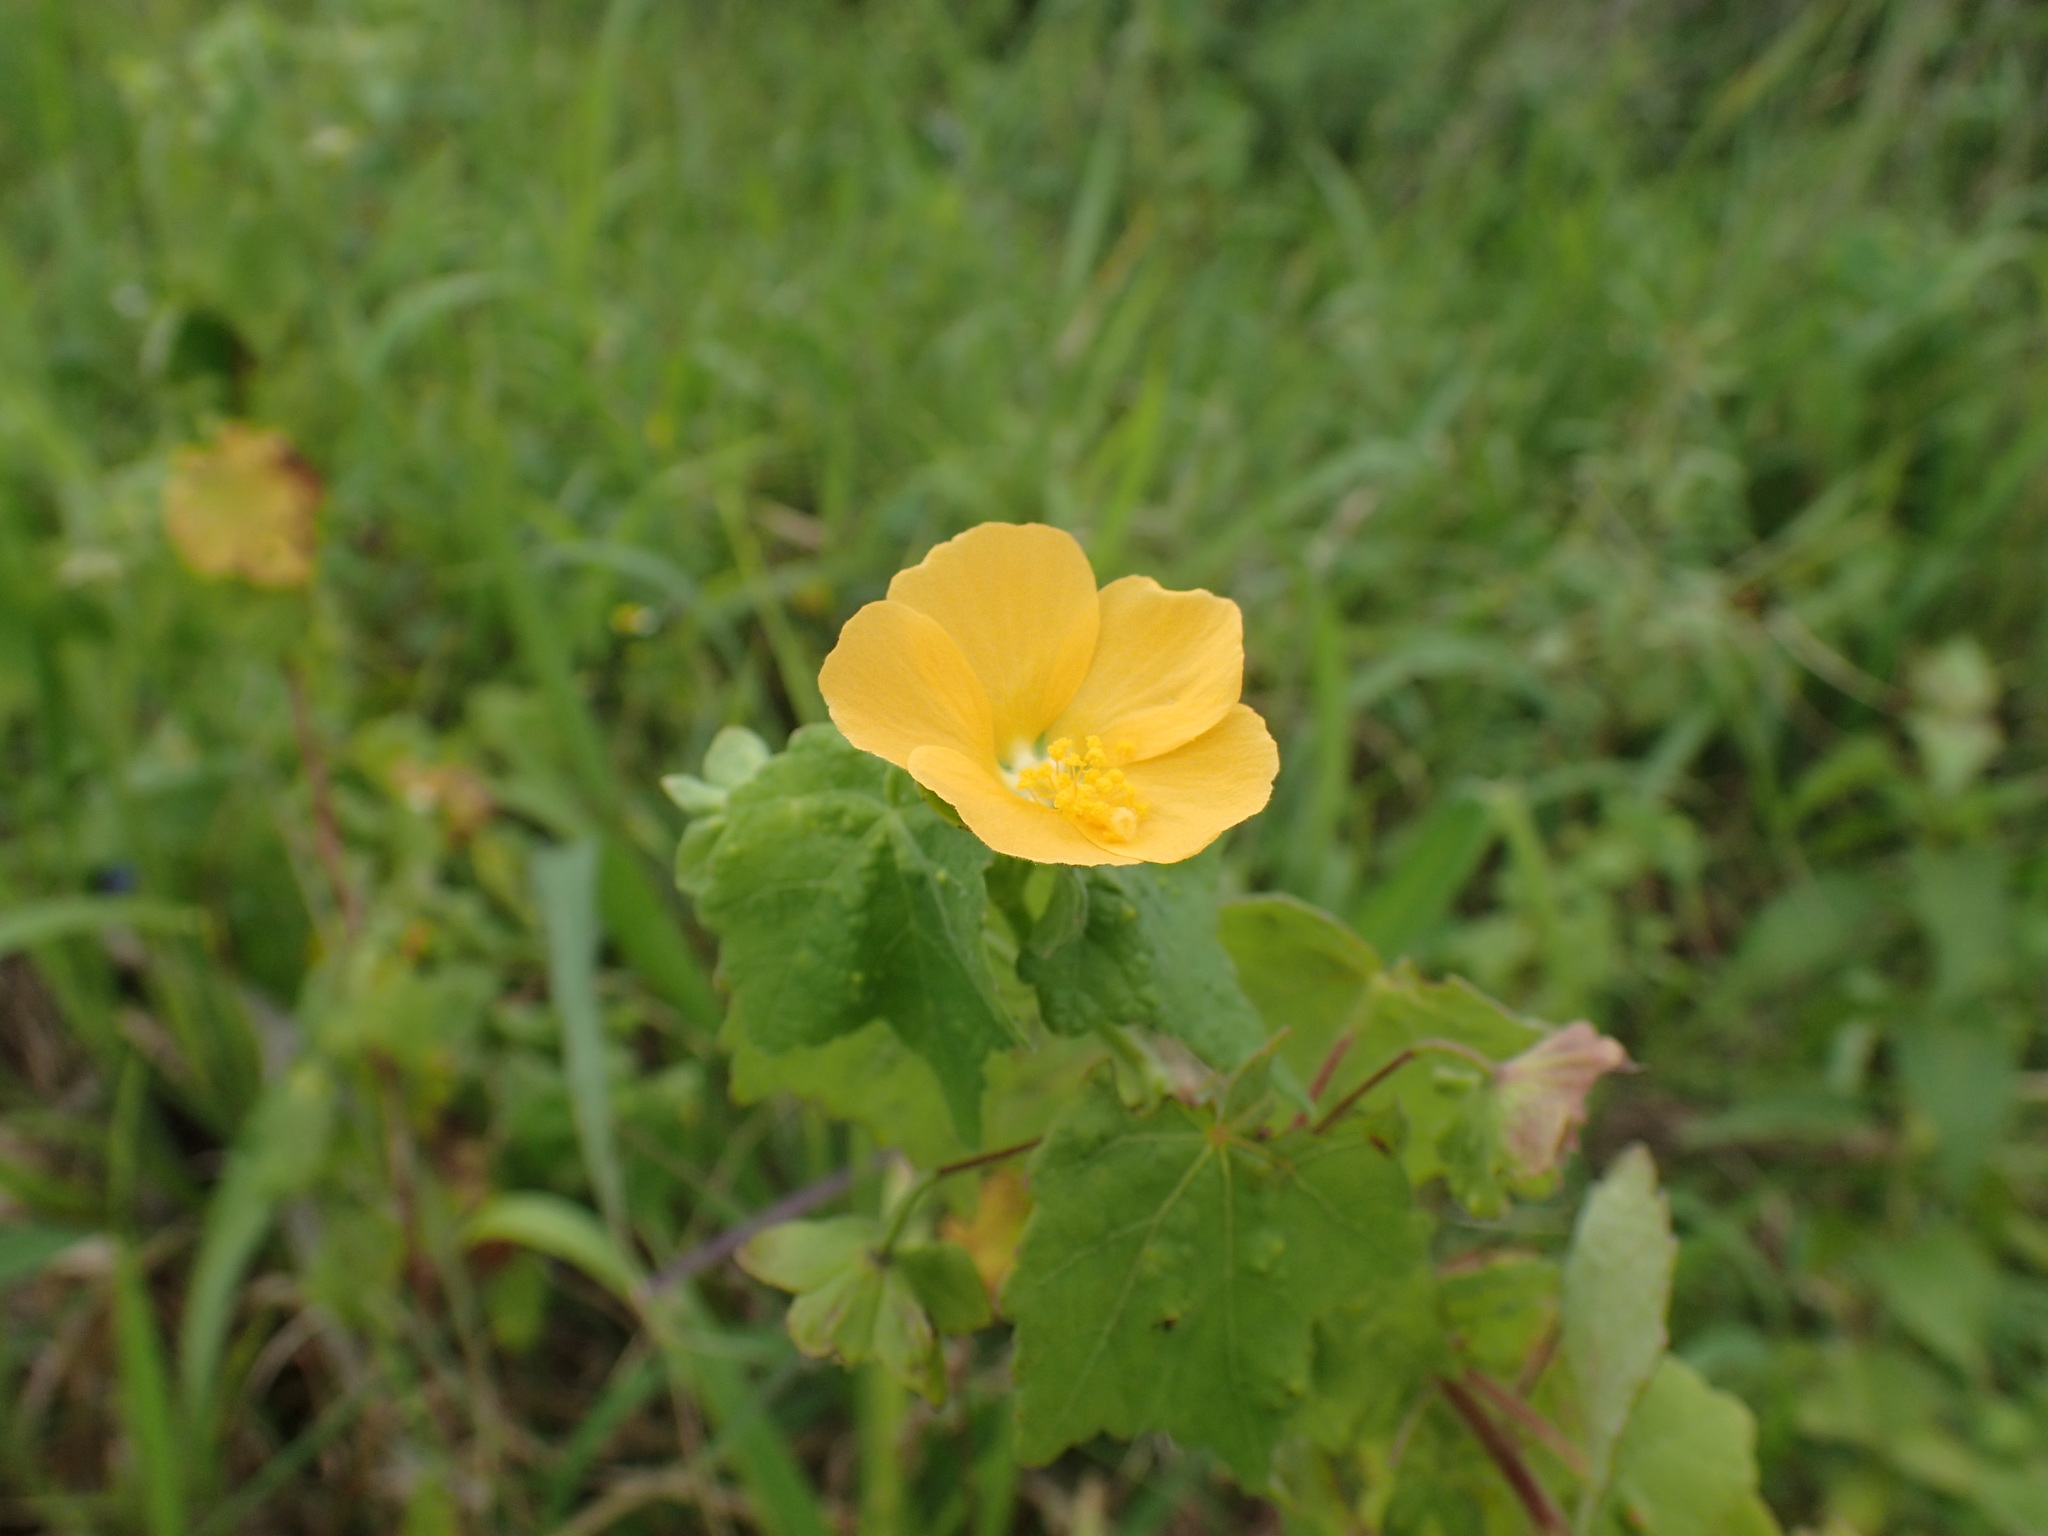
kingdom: Plantae
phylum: Tracheophyta
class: Magnoliopsida
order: Malvales
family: Malvaceae
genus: Pavonia
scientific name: Pavonia burchellii
